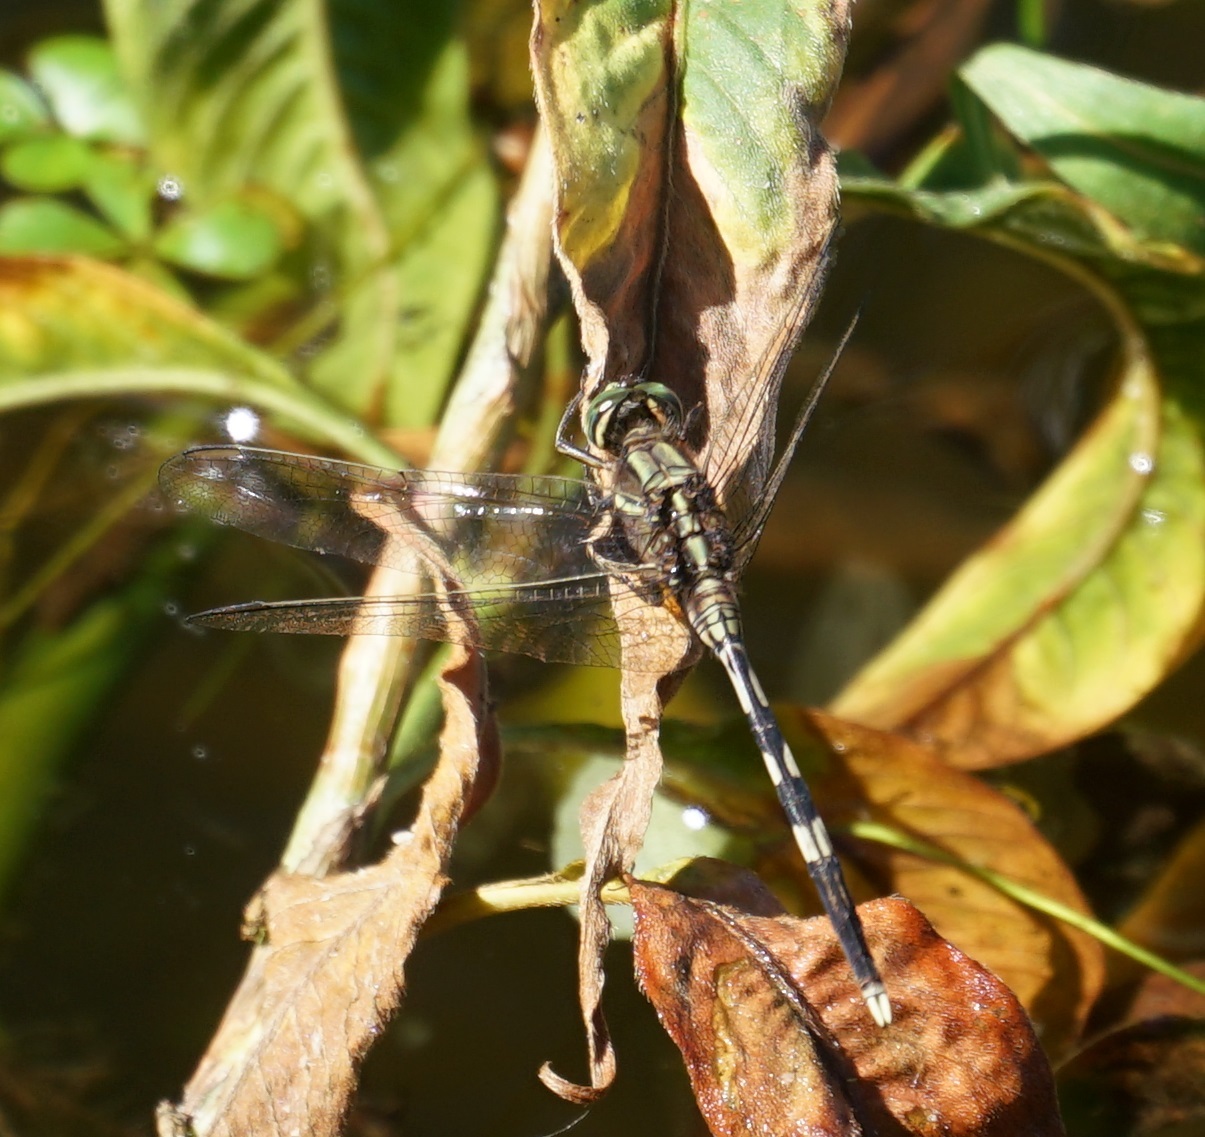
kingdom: Animalia
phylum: Arthropoda
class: Insecta
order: Odonata
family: Libellulidae
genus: Orthetrum
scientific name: Orthetrum sabina
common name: Slender skimmer
